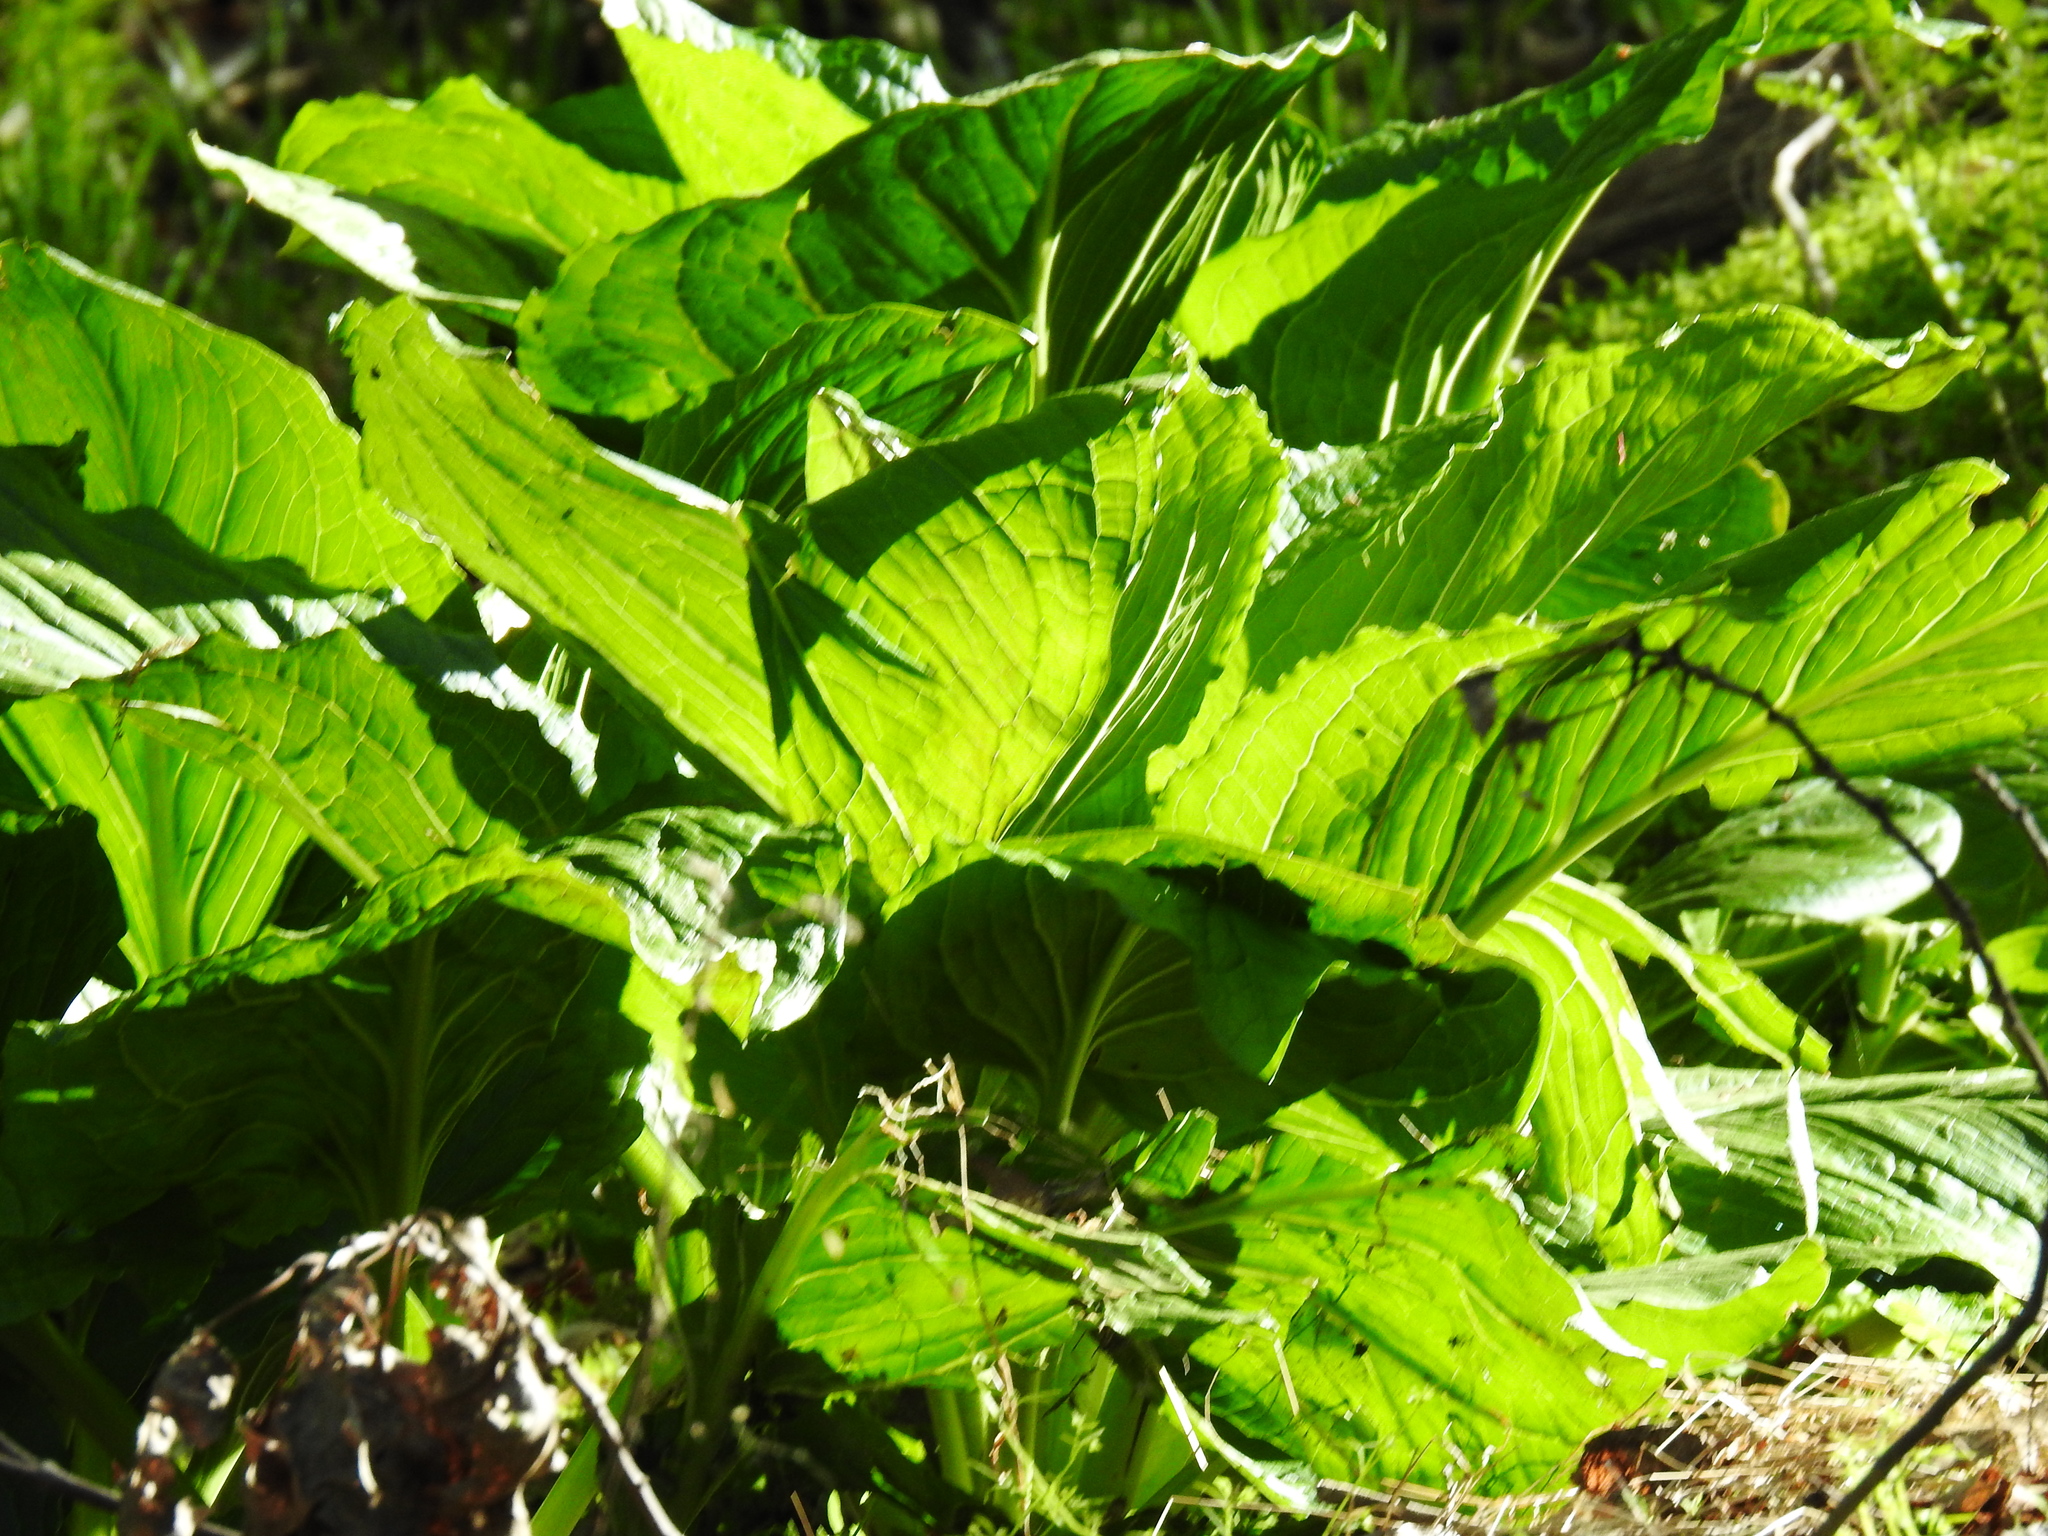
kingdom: Plantae
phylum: Tracheophyta
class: Liliopsida
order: Alismatales
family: Araceae
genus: Symplocarpus
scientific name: Symplocarpus foetidus
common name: Eastern skunk cabbage
